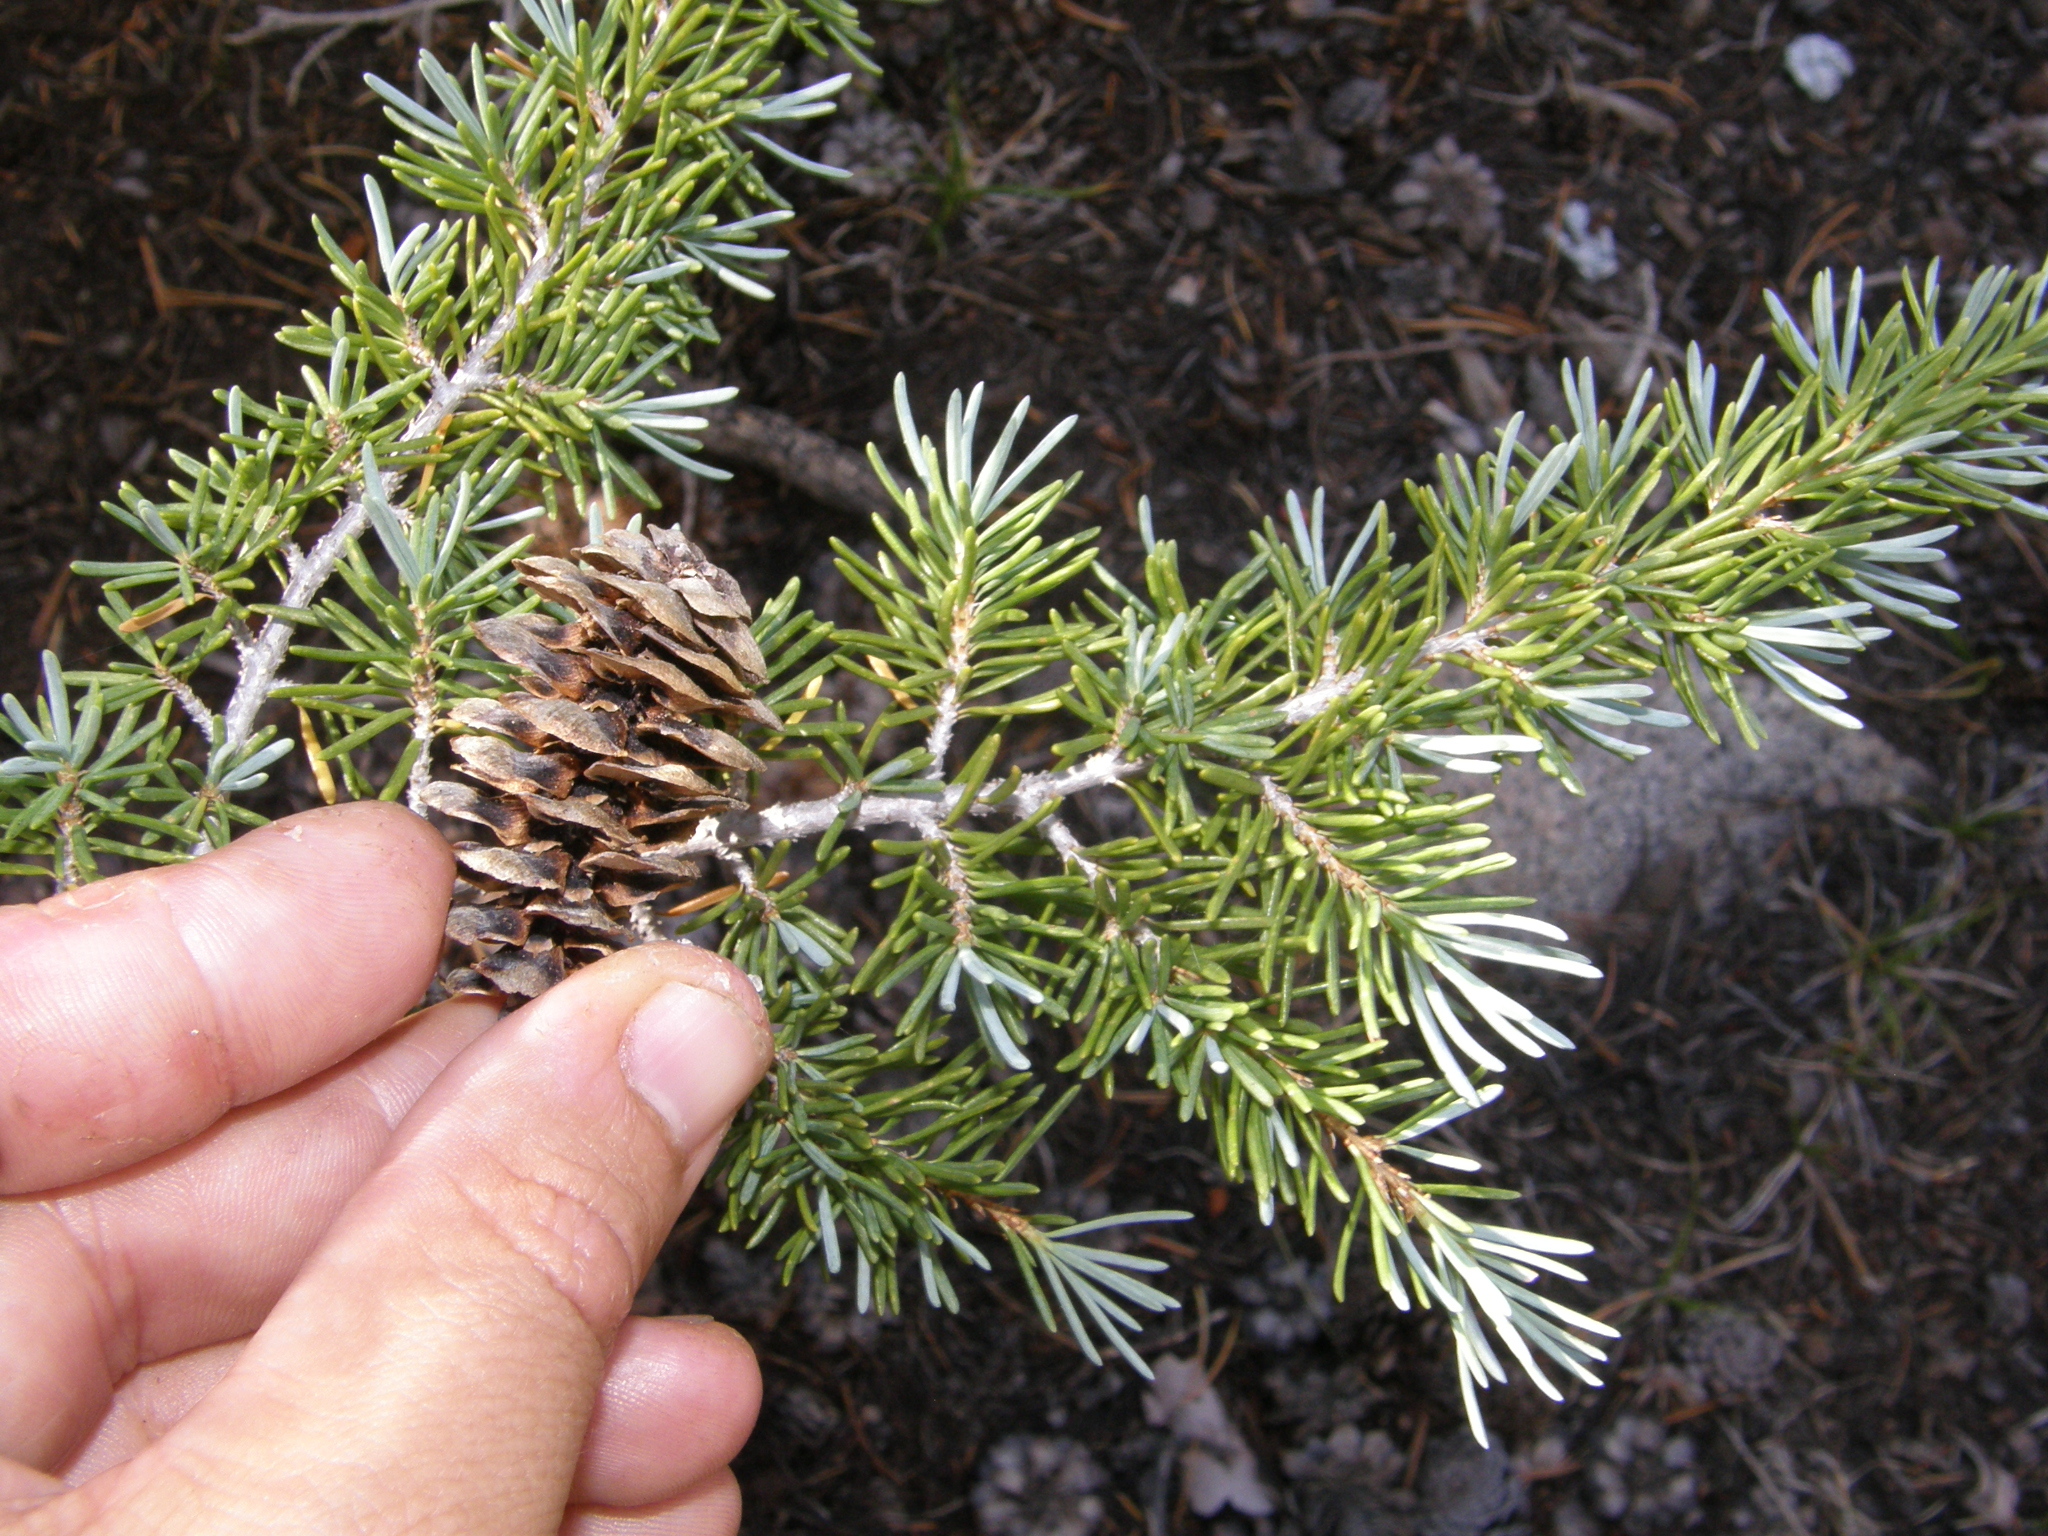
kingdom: Plantae
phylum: Tracheophyta
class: Pinopsida
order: Pinales
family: Pinaceae
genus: Tsuga
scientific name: Tsuga mertensiana
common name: Mountain hemlock
